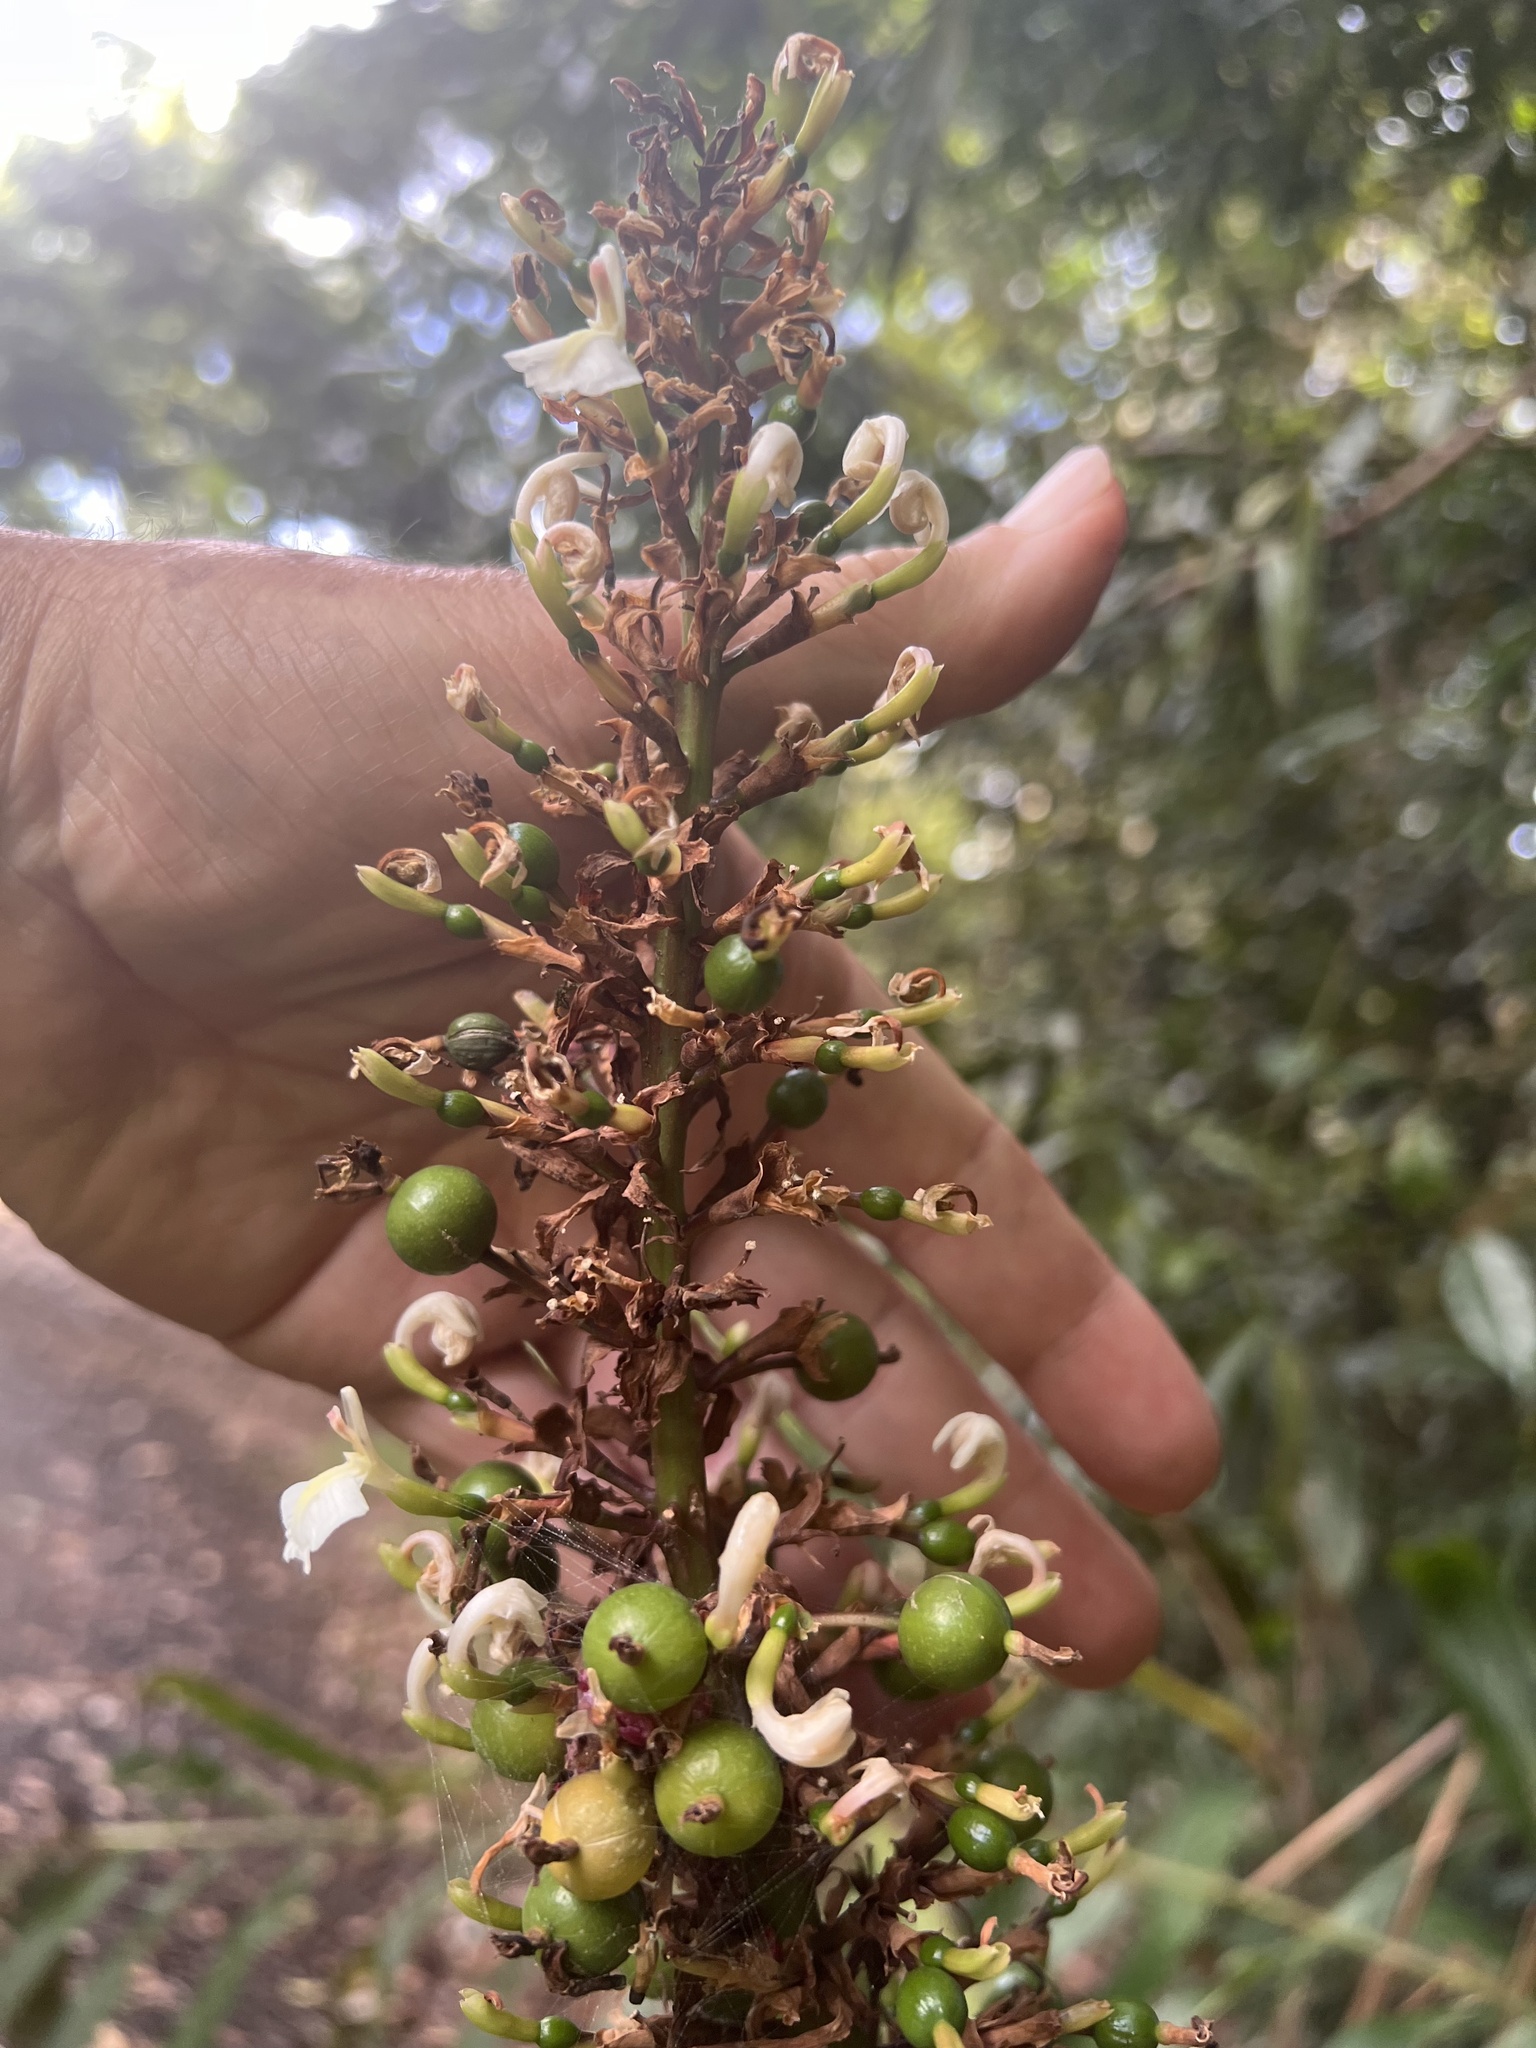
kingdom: Plantae
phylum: Tracheophyta
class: Liliopsida
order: Zingiberales
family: Zingiberaceae
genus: Alpinia
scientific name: Alpinia caerulea
